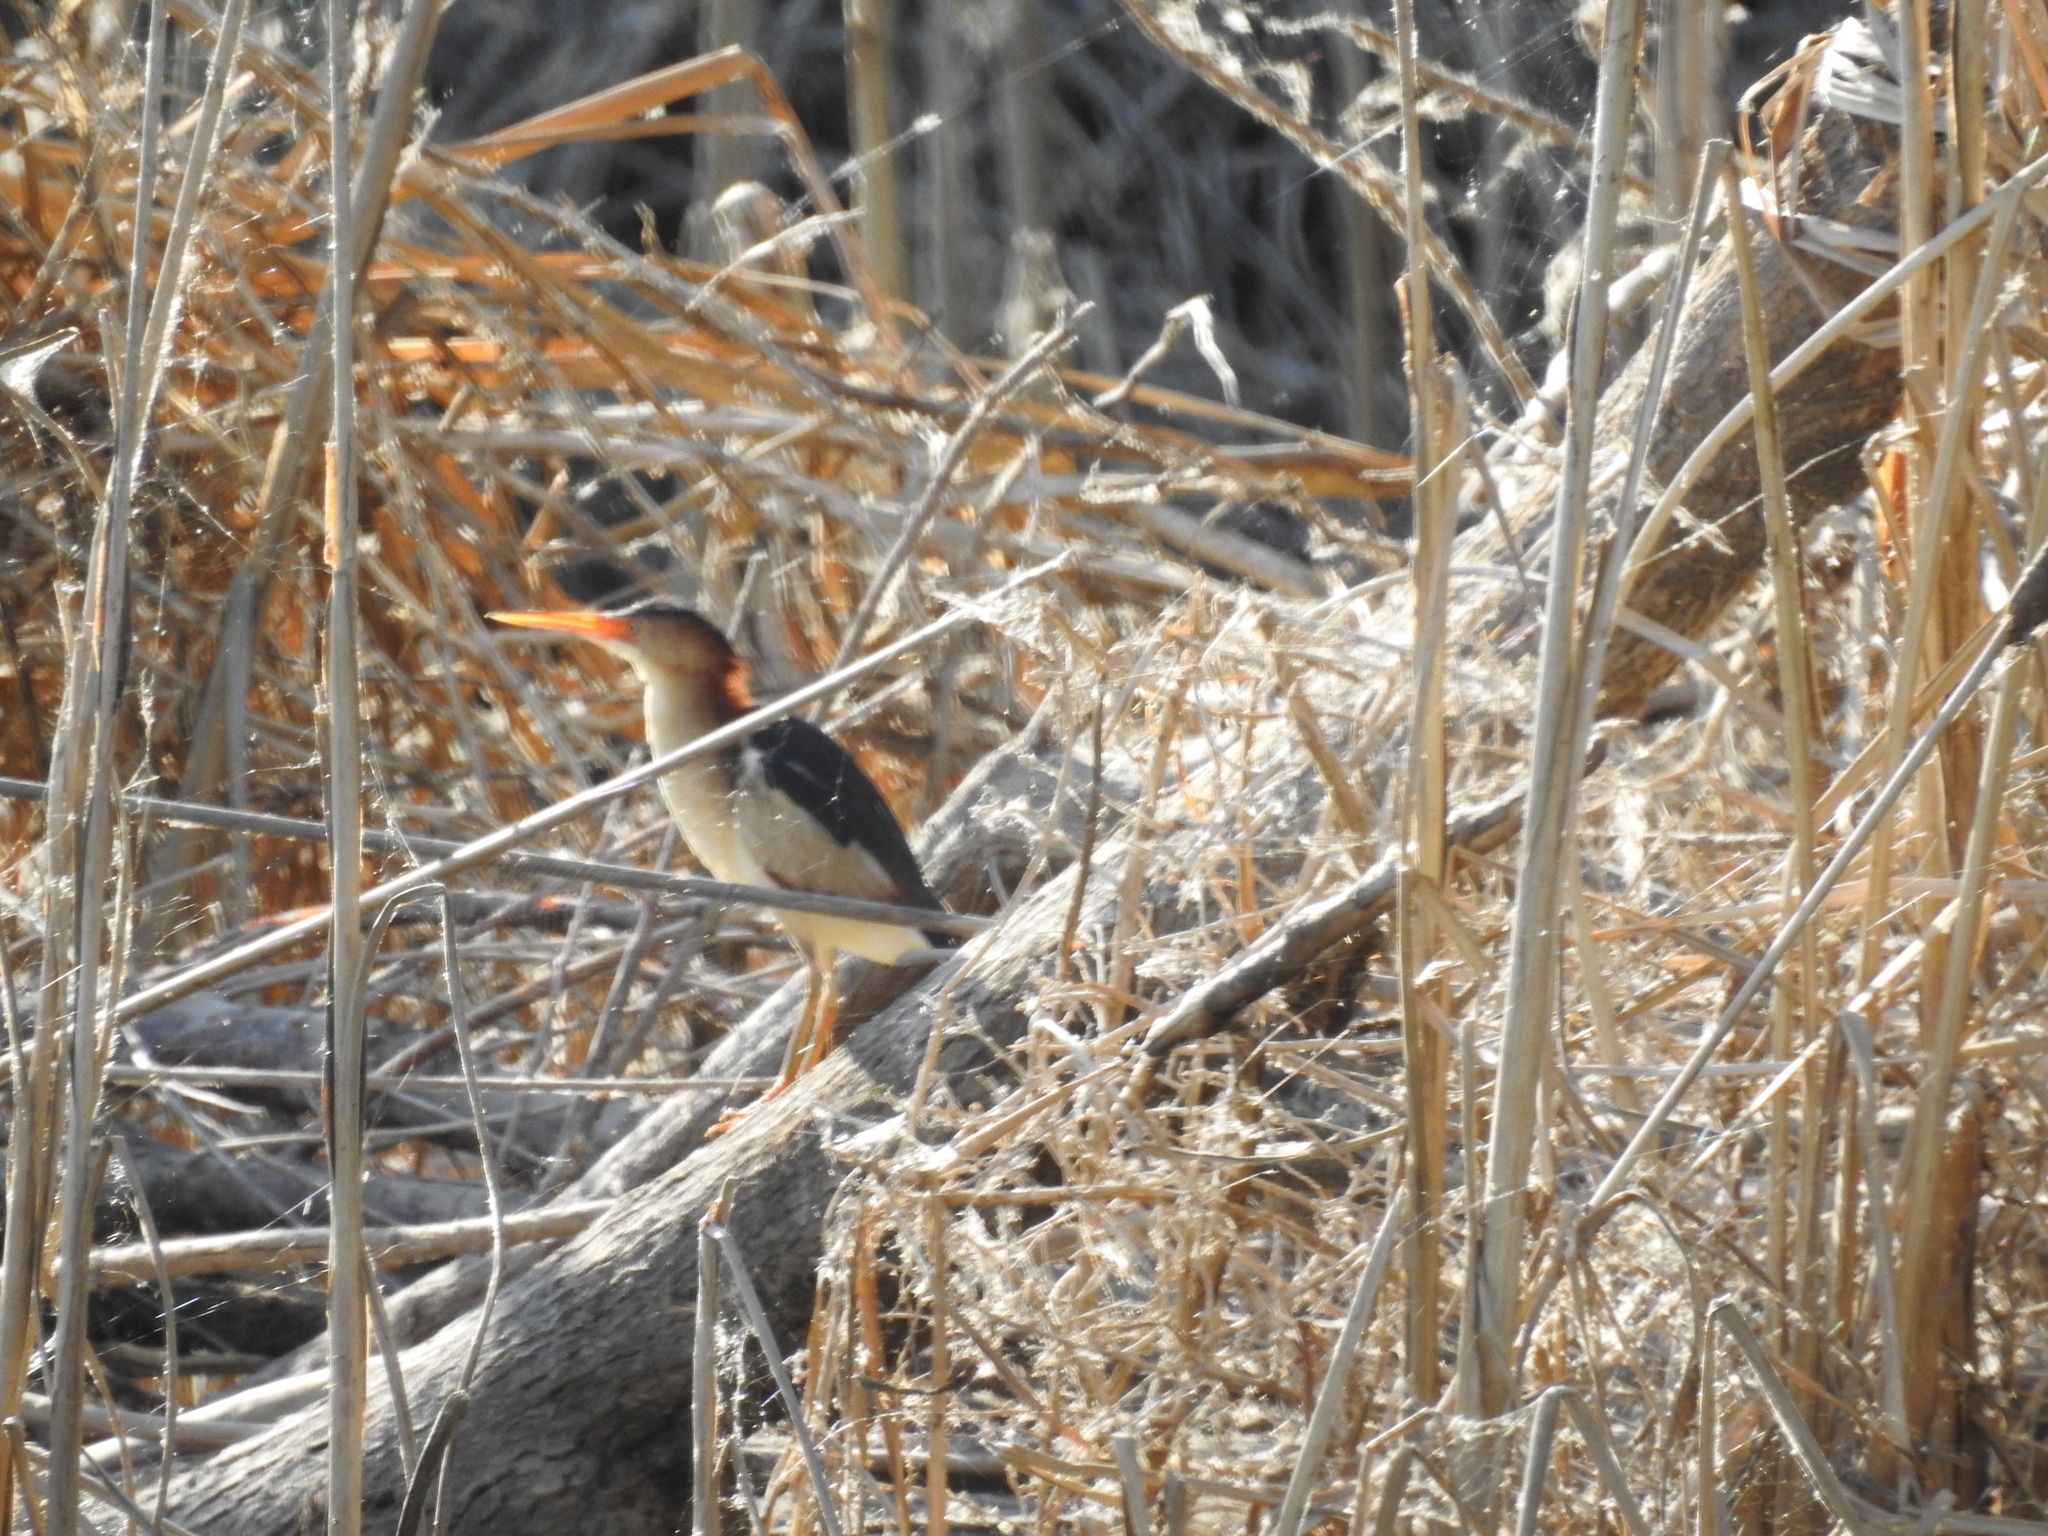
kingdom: Animalia
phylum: Chordata
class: Aves
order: Pelecaniformes
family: Ardeidae
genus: Ixobrychus
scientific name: Ixobrychus exilis
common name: Least bittern
